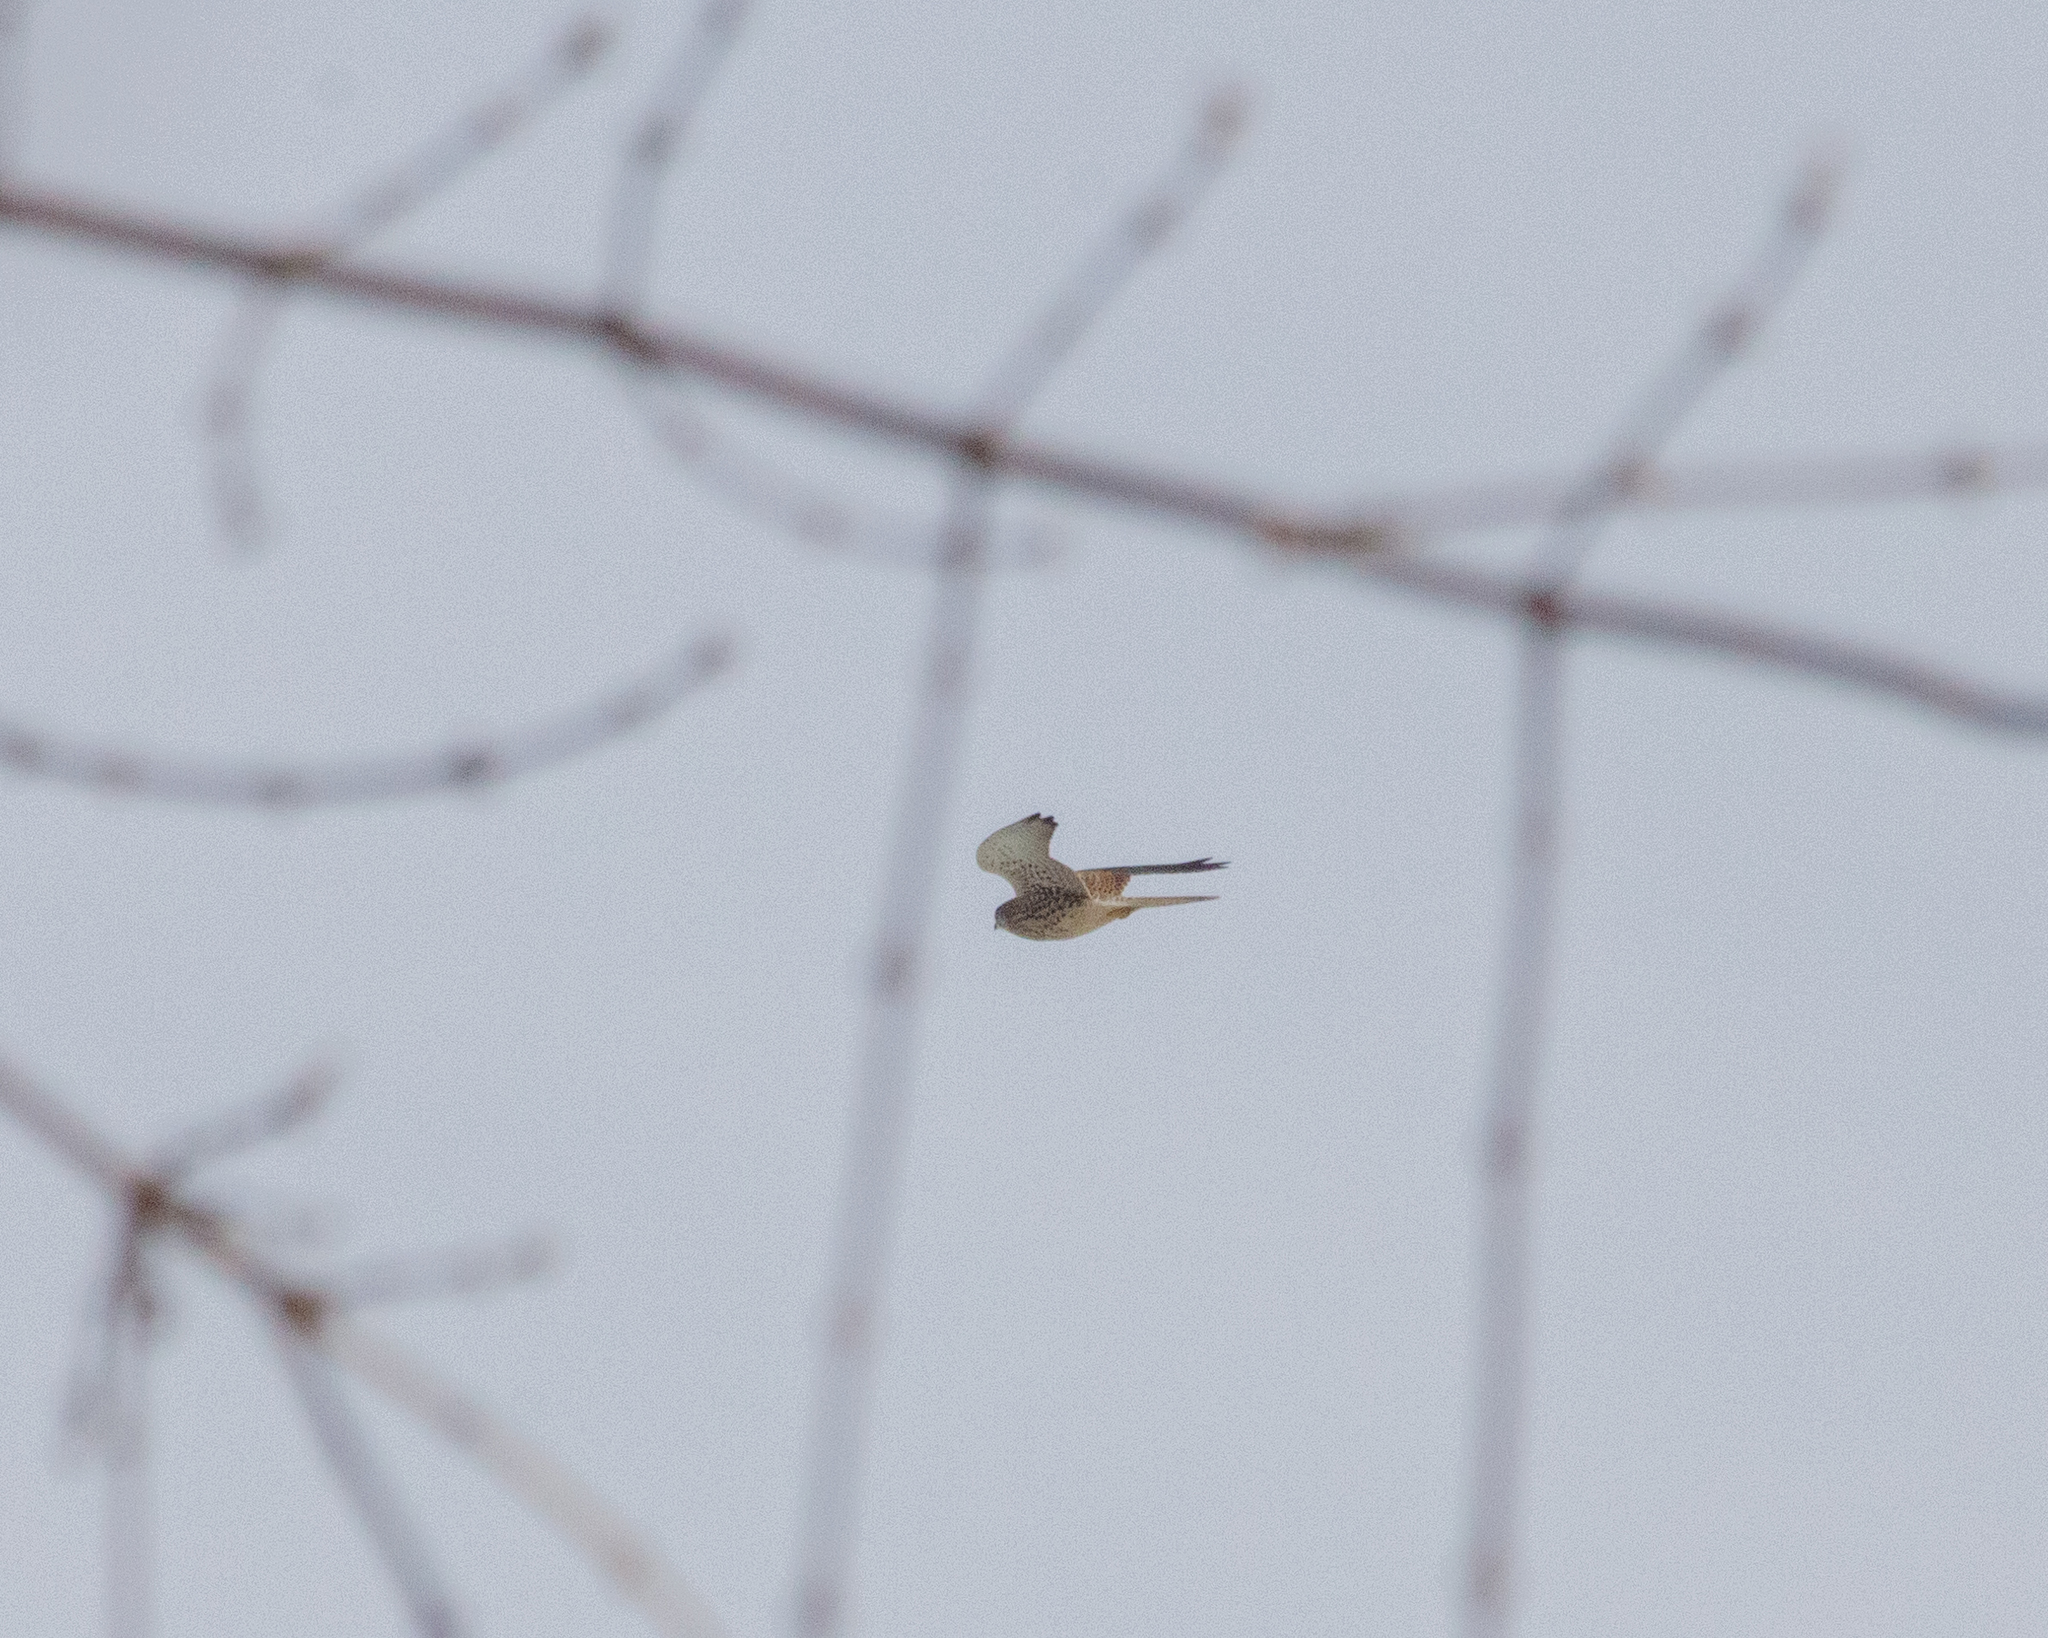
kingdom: Animalia
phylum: Chordata
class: Aves
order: Falconiformes
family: Falconidae
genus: Falco
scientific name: Falco tinnunculus
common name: Common kestrel
